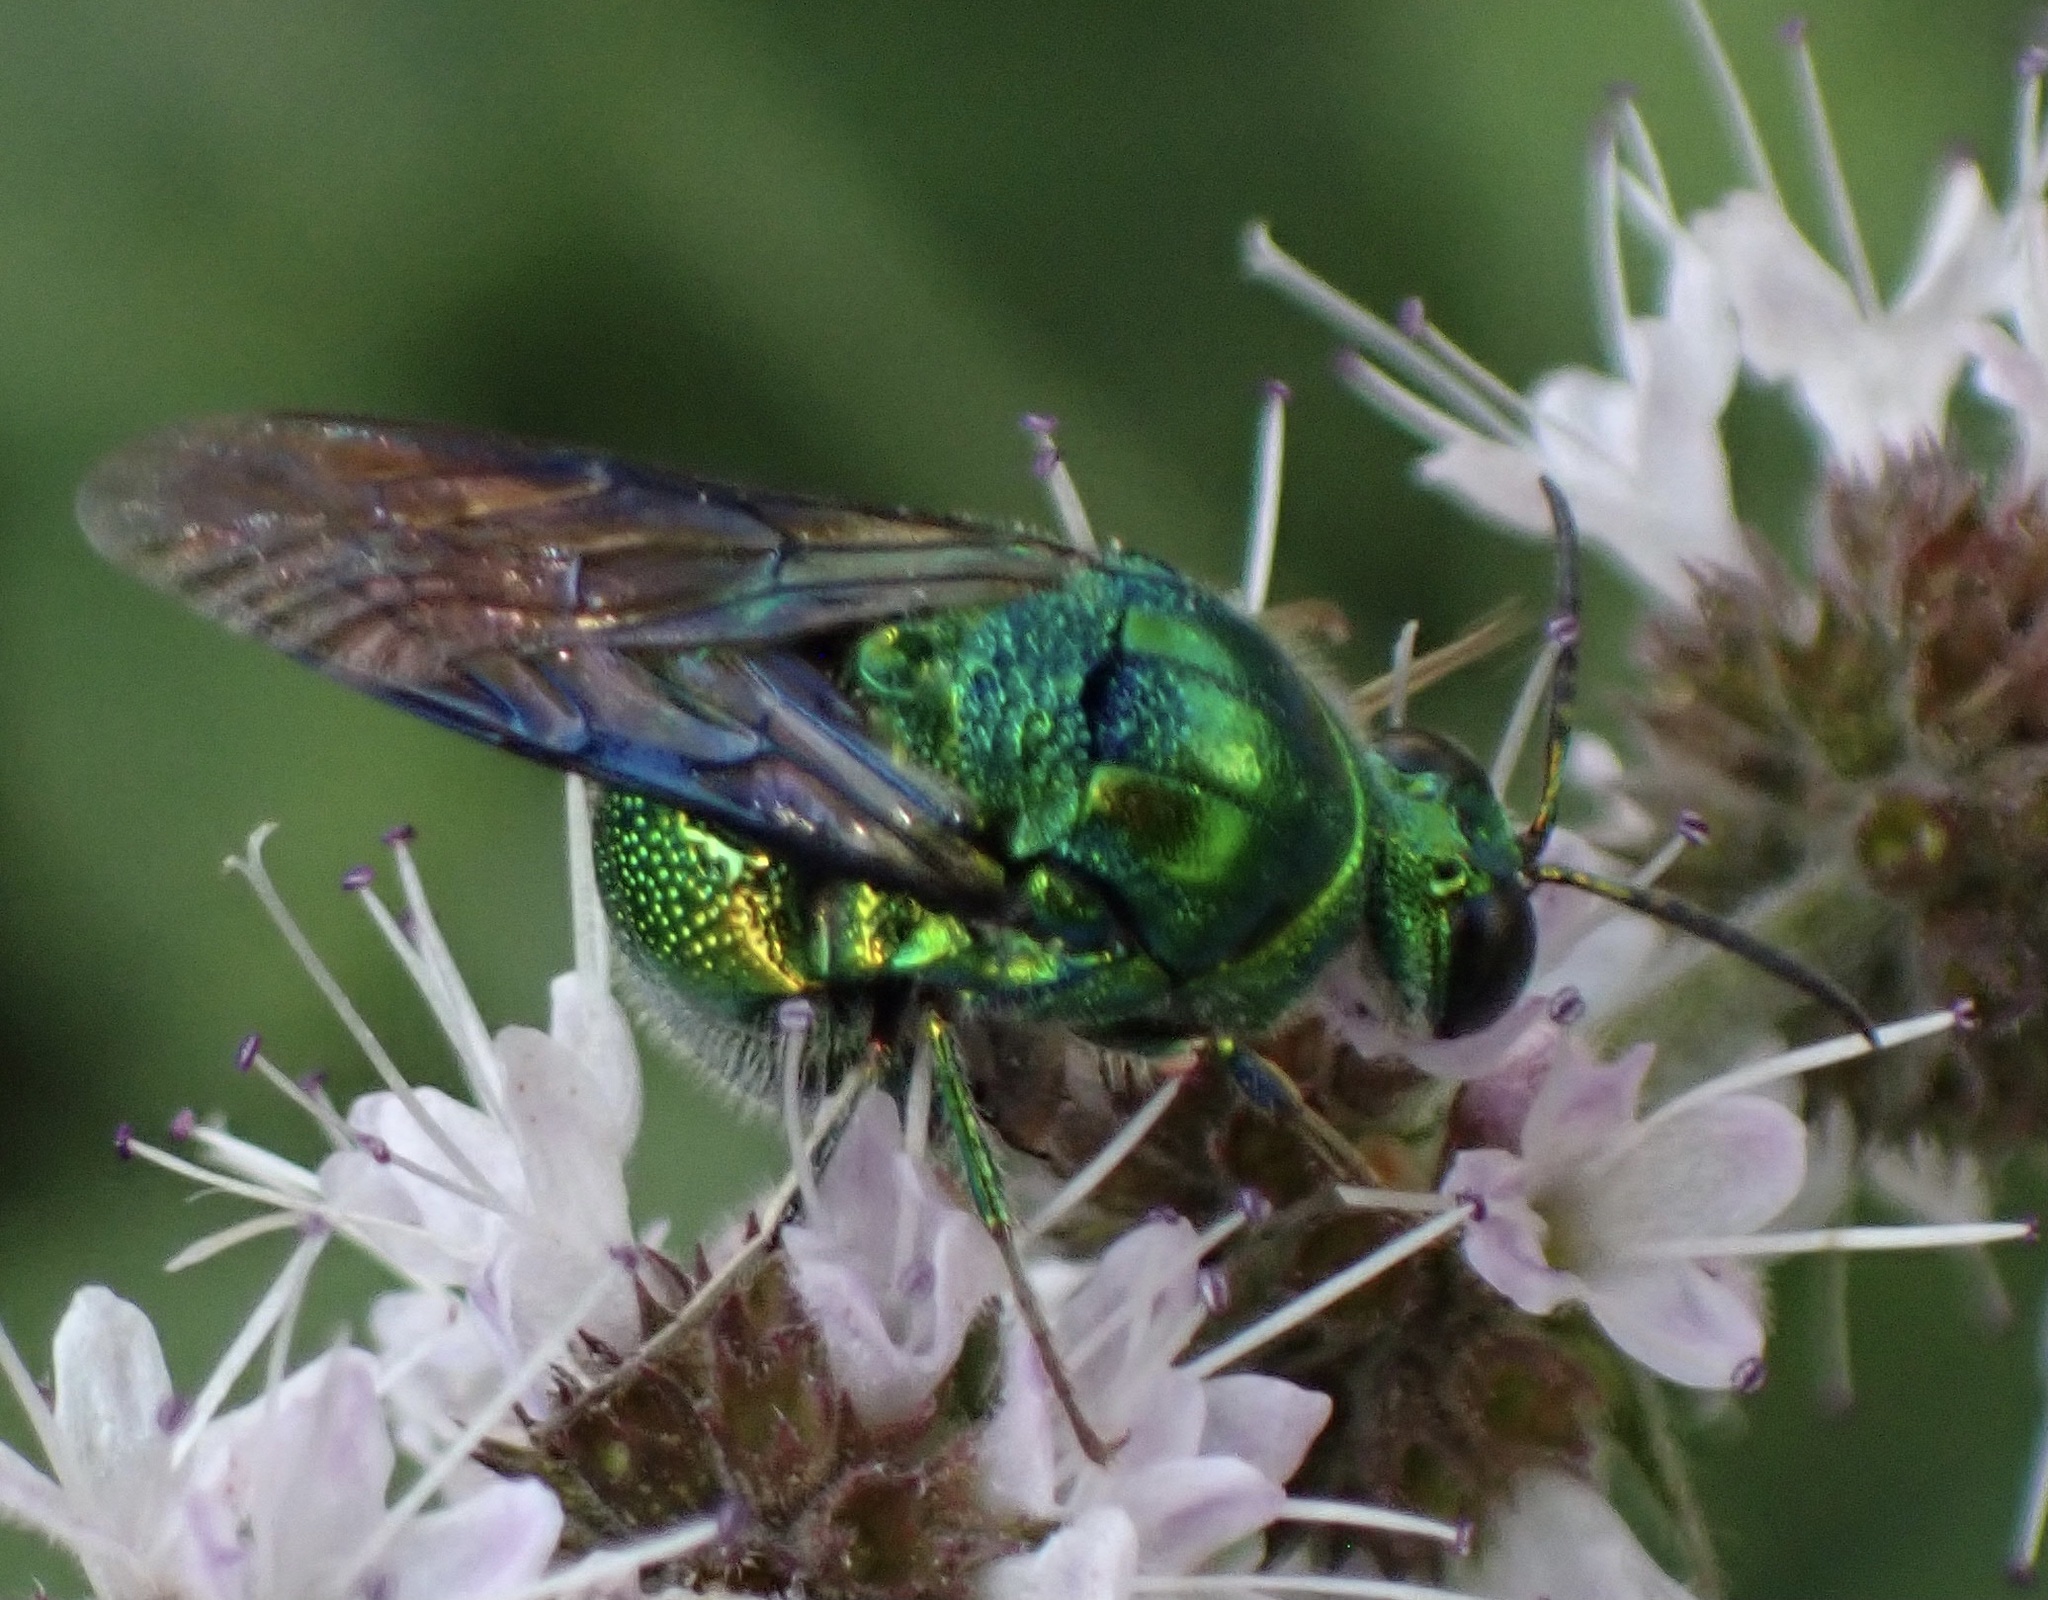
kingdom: Animalia
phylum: Arthropoda
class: Insecta
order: Hymenoptera
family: Chrysididae
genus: Stilbum
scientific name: Stilbum cyanurum
